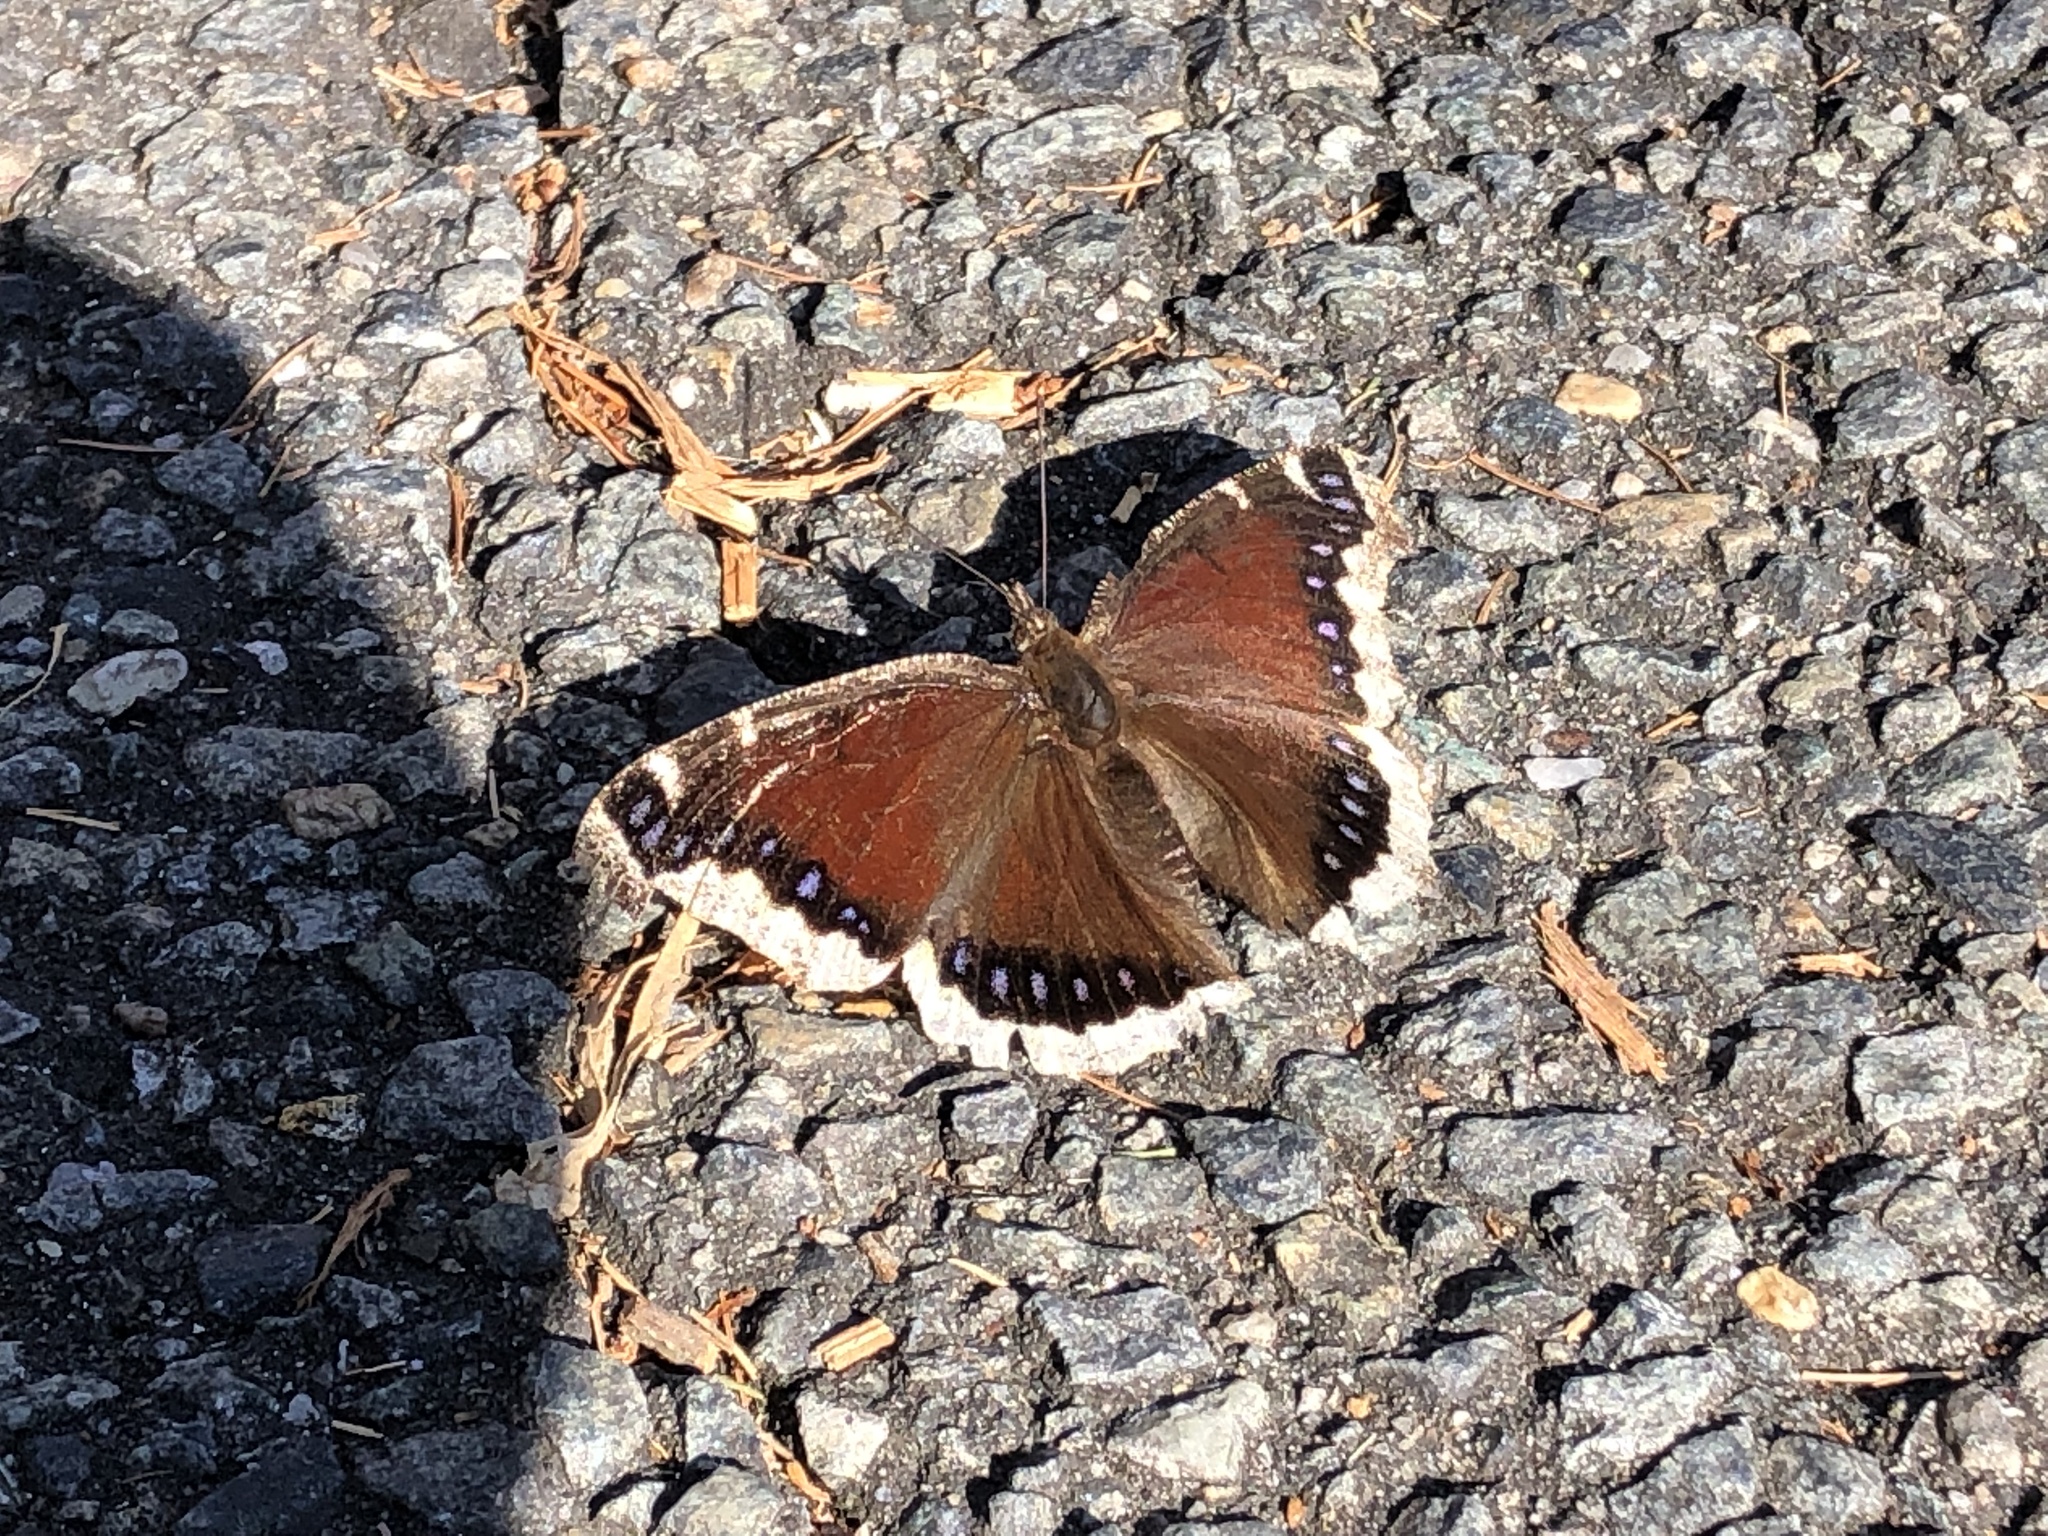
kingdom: Animalia
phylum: Arthropoda
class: Insecta
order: Lepidoptera
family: Nymphalidae
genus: Nymphalis
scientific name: Nymphalis antiopa
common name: Camberwell beauty
